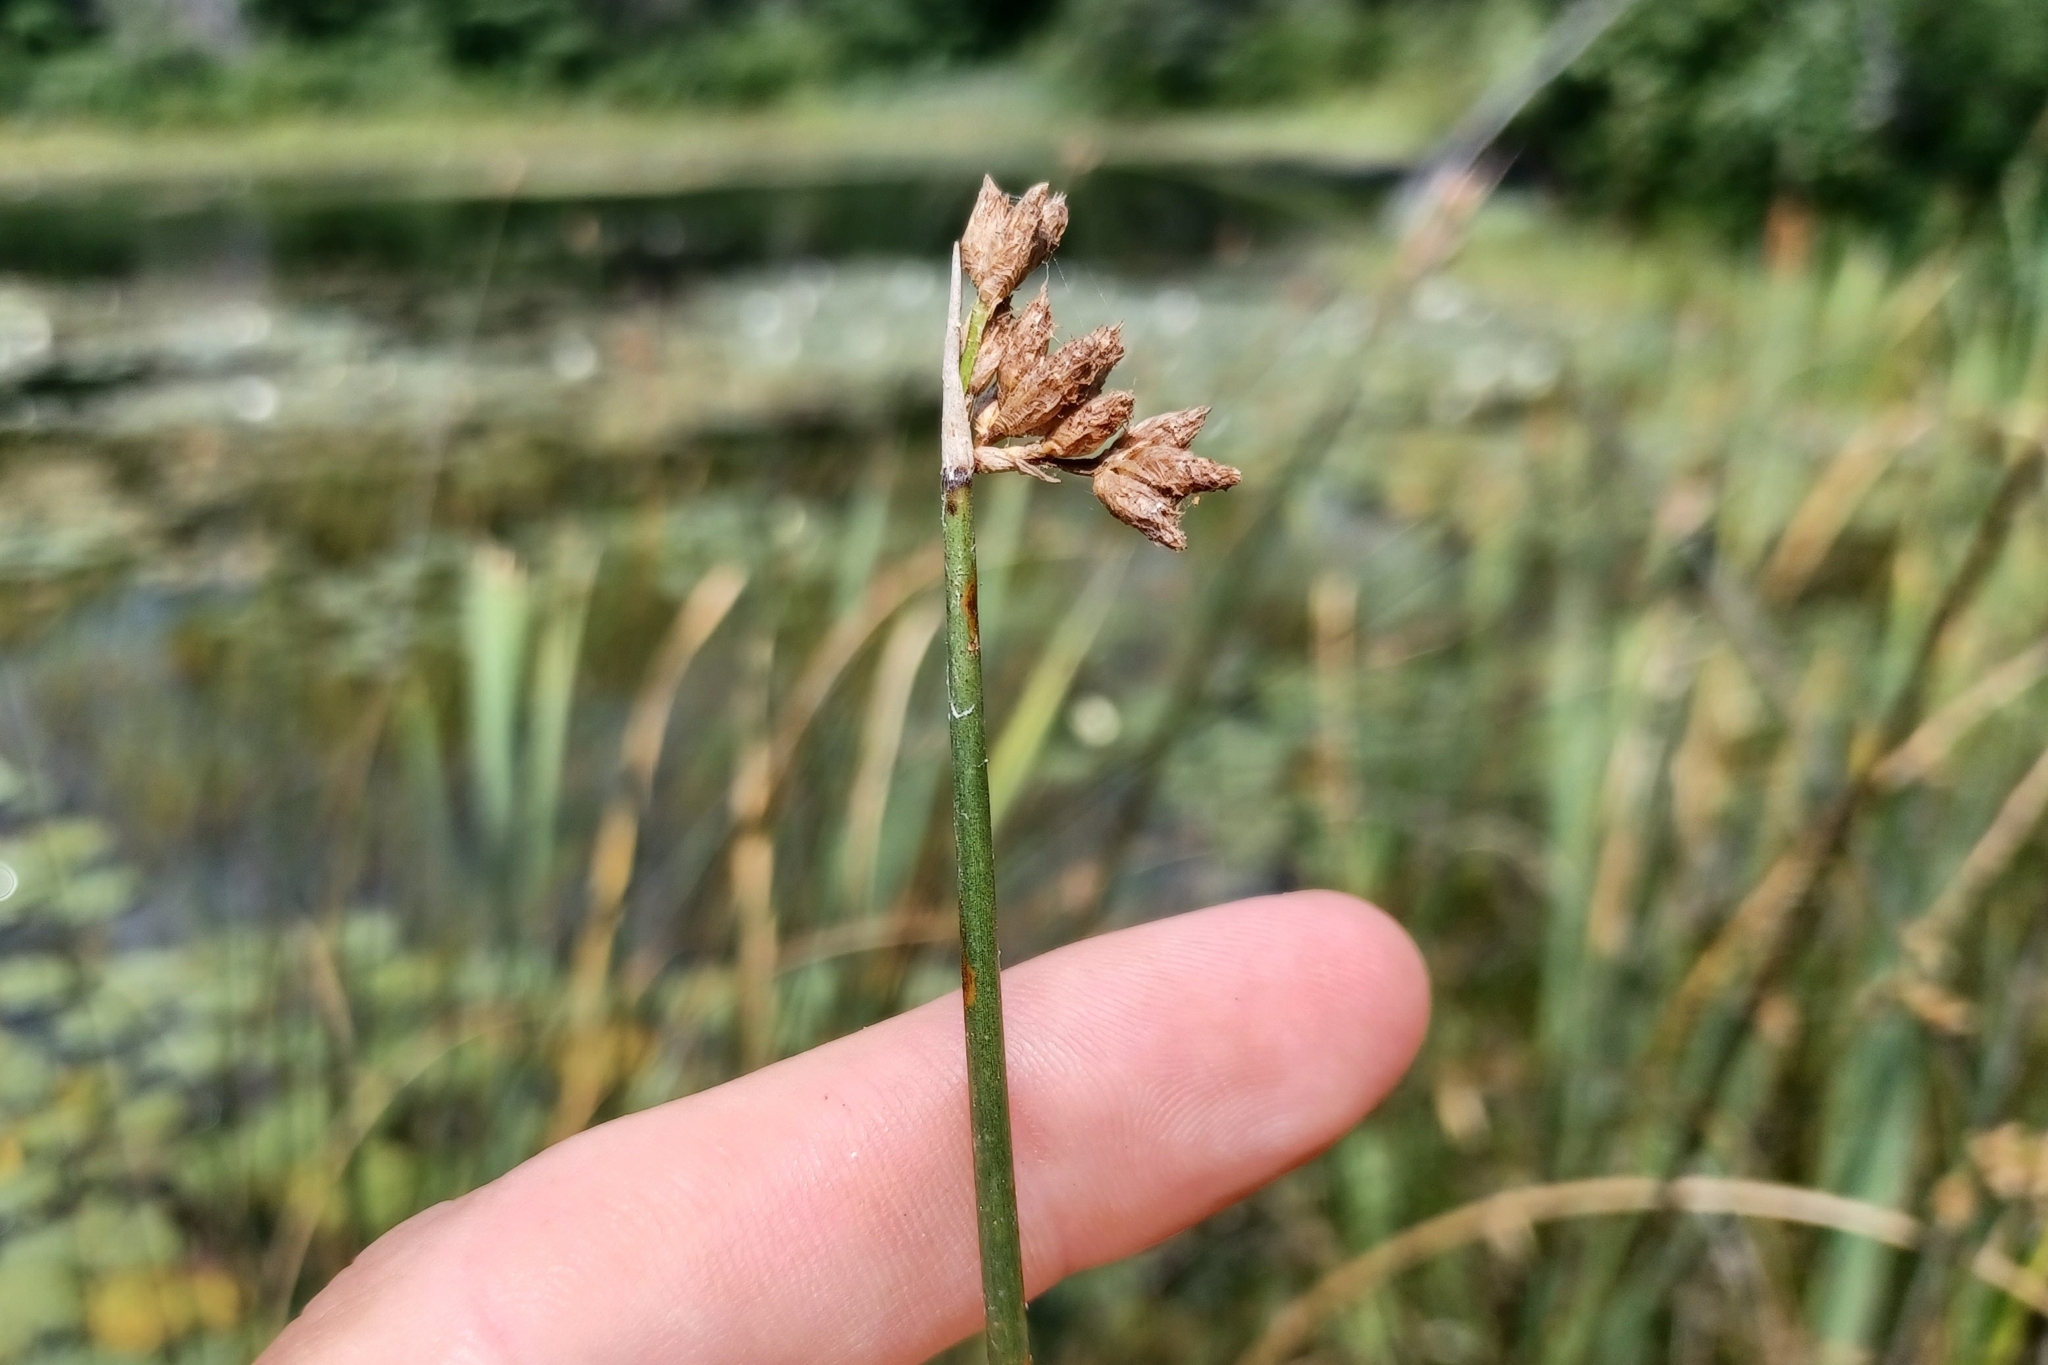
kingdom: Plantae
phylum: Tracheophyta
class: Liliopsida
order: Poales
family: Cyperaceae
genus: Schoenoplectus
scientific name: Schoenoplectus acutus
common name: Hardstem bulrush
